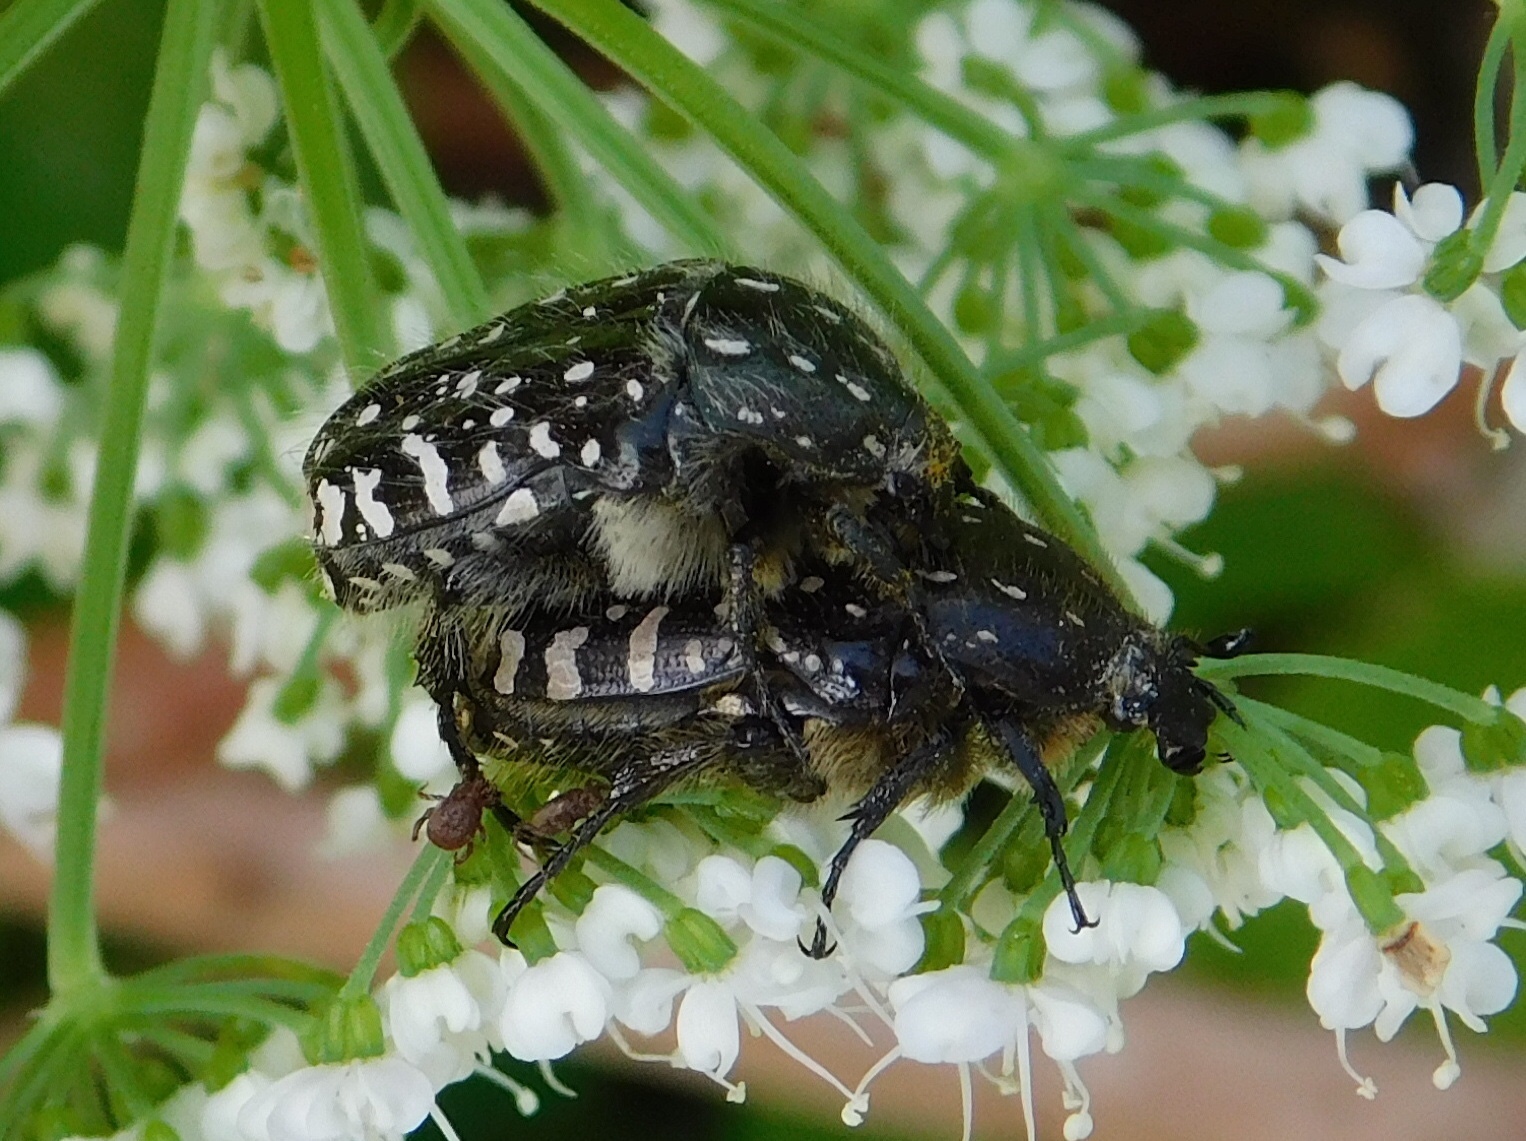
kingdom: Animalia
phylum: Arthropoda
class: Insecta
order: Coleoptera
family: Scarabaeidae
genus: Oxythyrea
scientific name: Oxythyrea funesta
